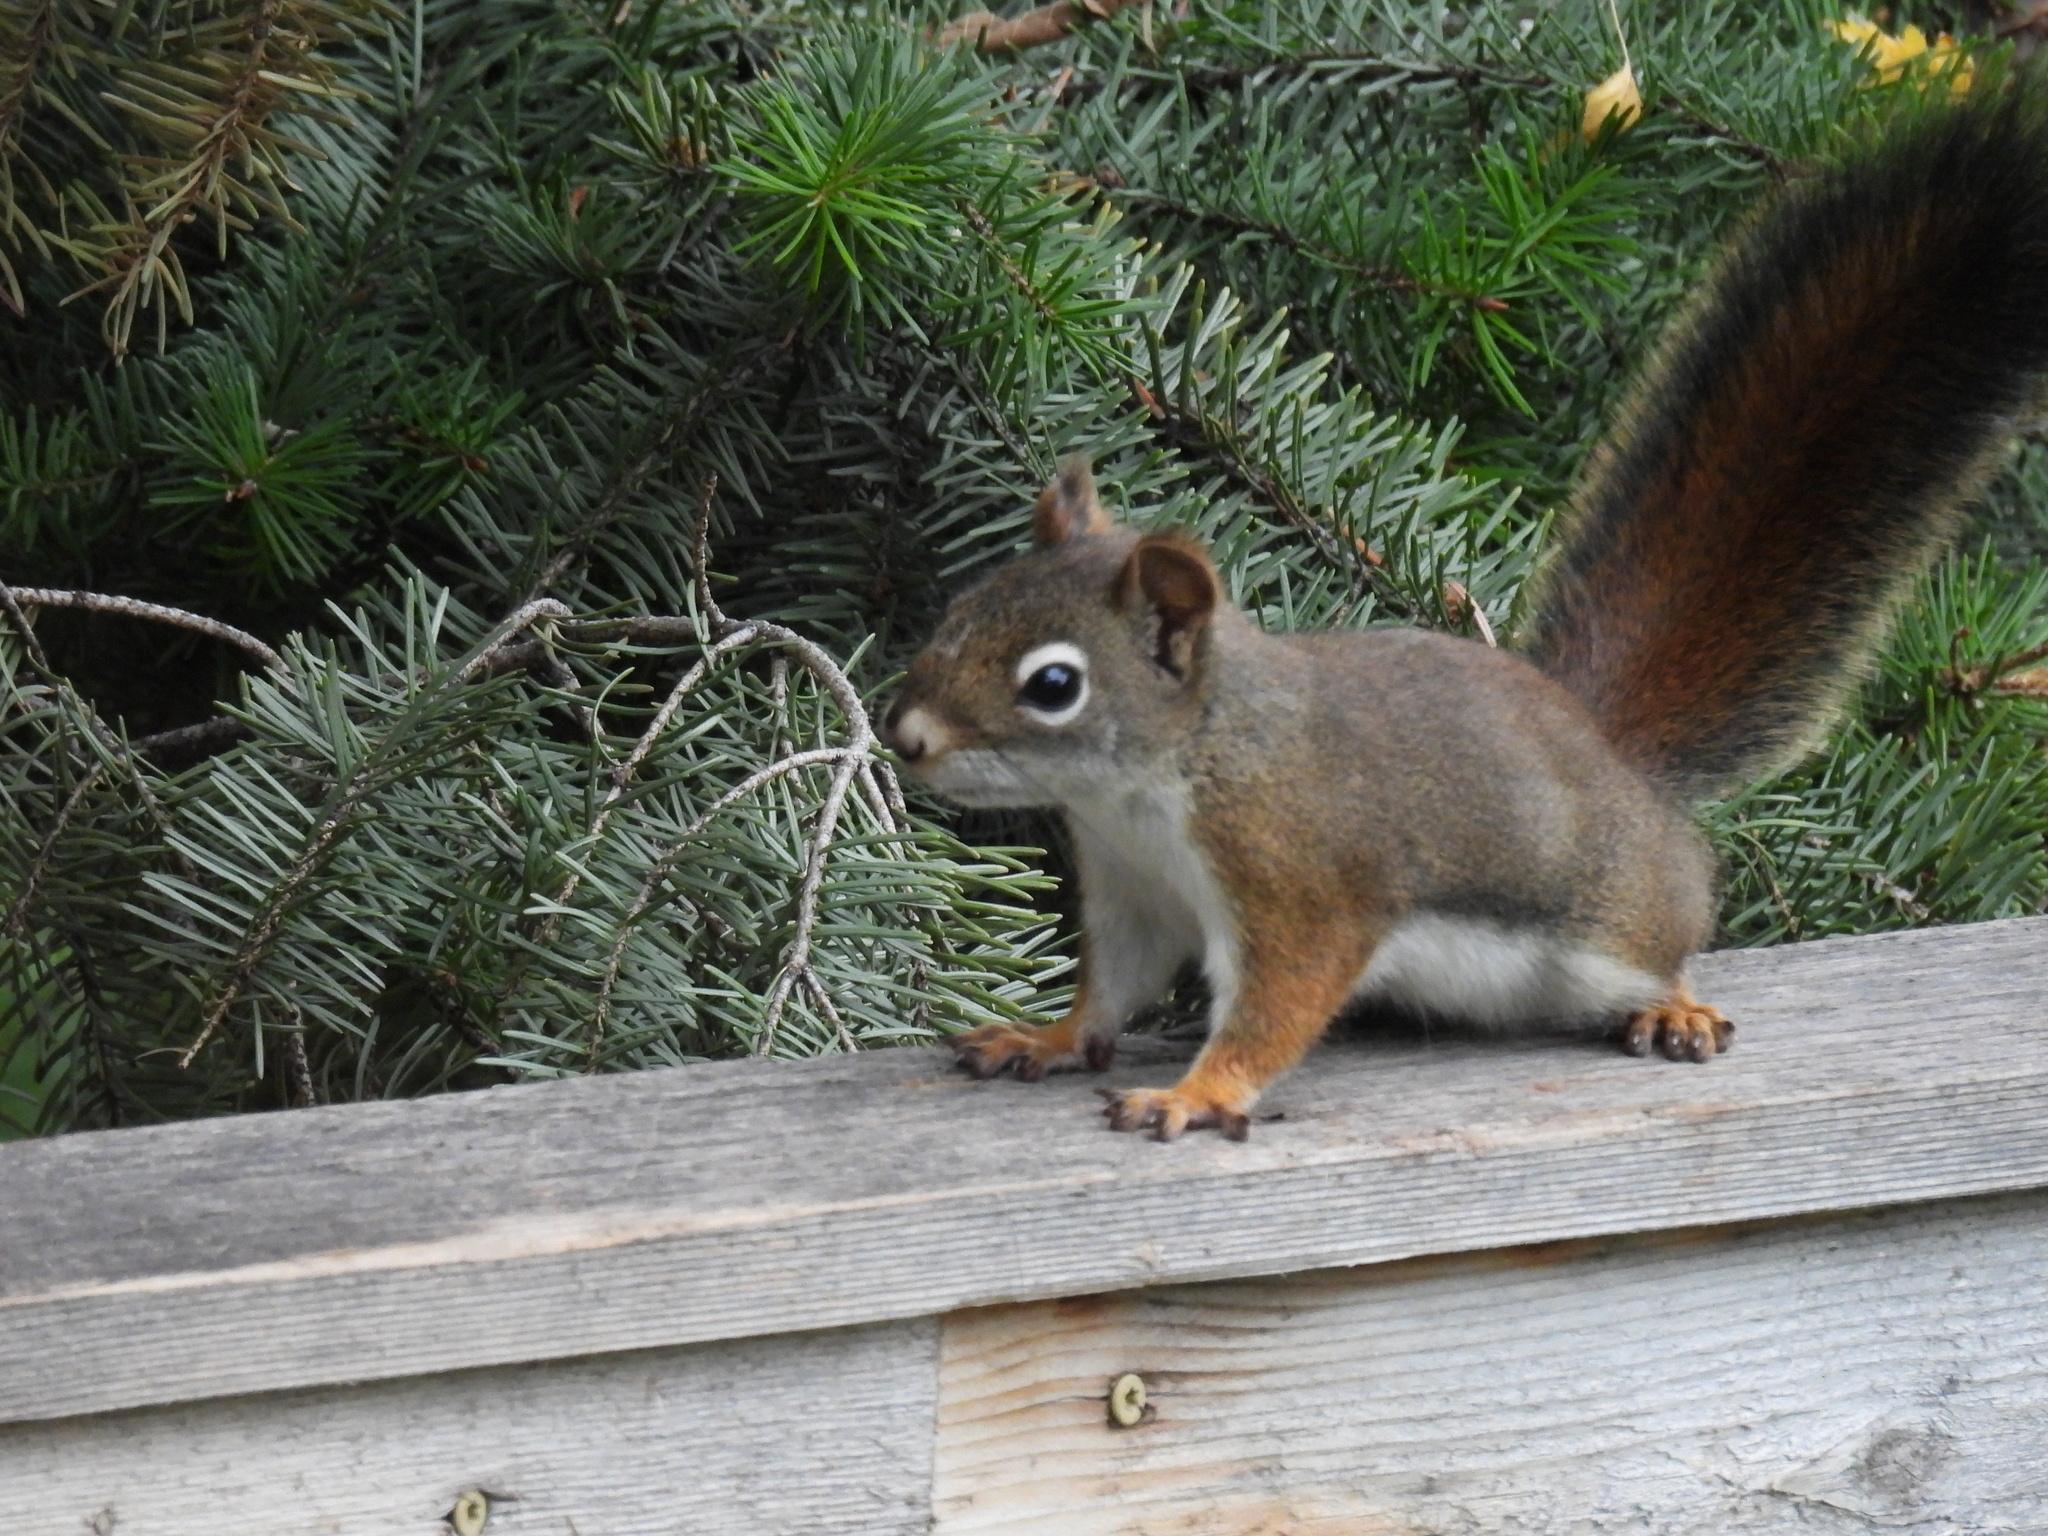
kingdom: Animalia
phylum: Chordata
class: Mammalia
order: Rodentia
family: Sciuridae
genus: Tamiasciurus
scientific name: Tamiasciurus hudsonicus
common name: Red squirrel
